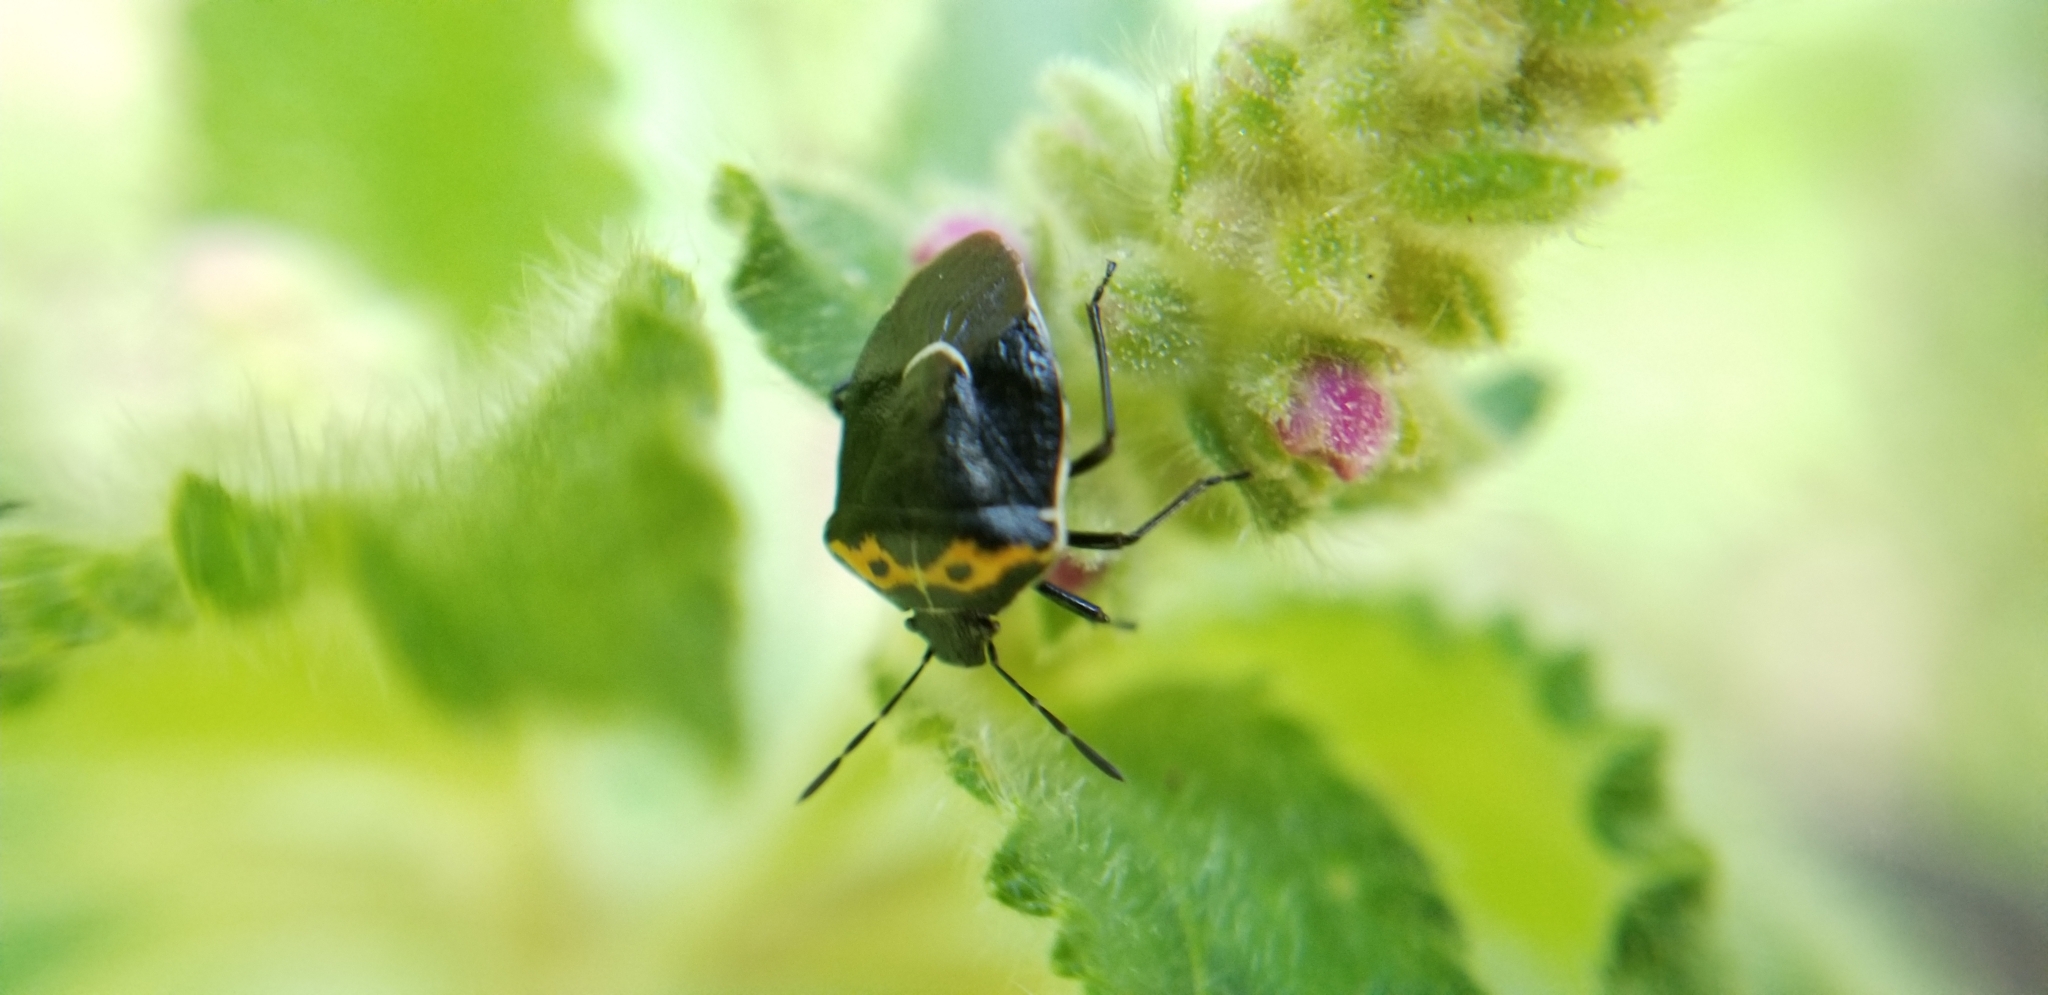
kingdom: Animalia
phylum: Arthropoda
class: Insecta
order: Hemiptera
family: Pentatomidae
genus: Cosmopepla
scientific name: Cosmopepla conspicillaris
